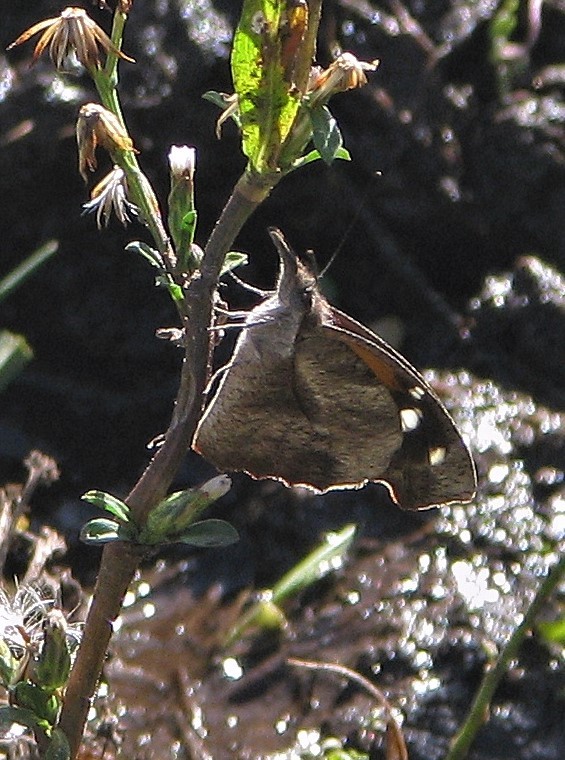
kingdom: Animalia
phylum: Arthropoda
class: Insecta
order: Lepidoptera
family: Nymphalidae
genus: Libytheana
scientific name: Libytheana carinenta
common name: American snout
